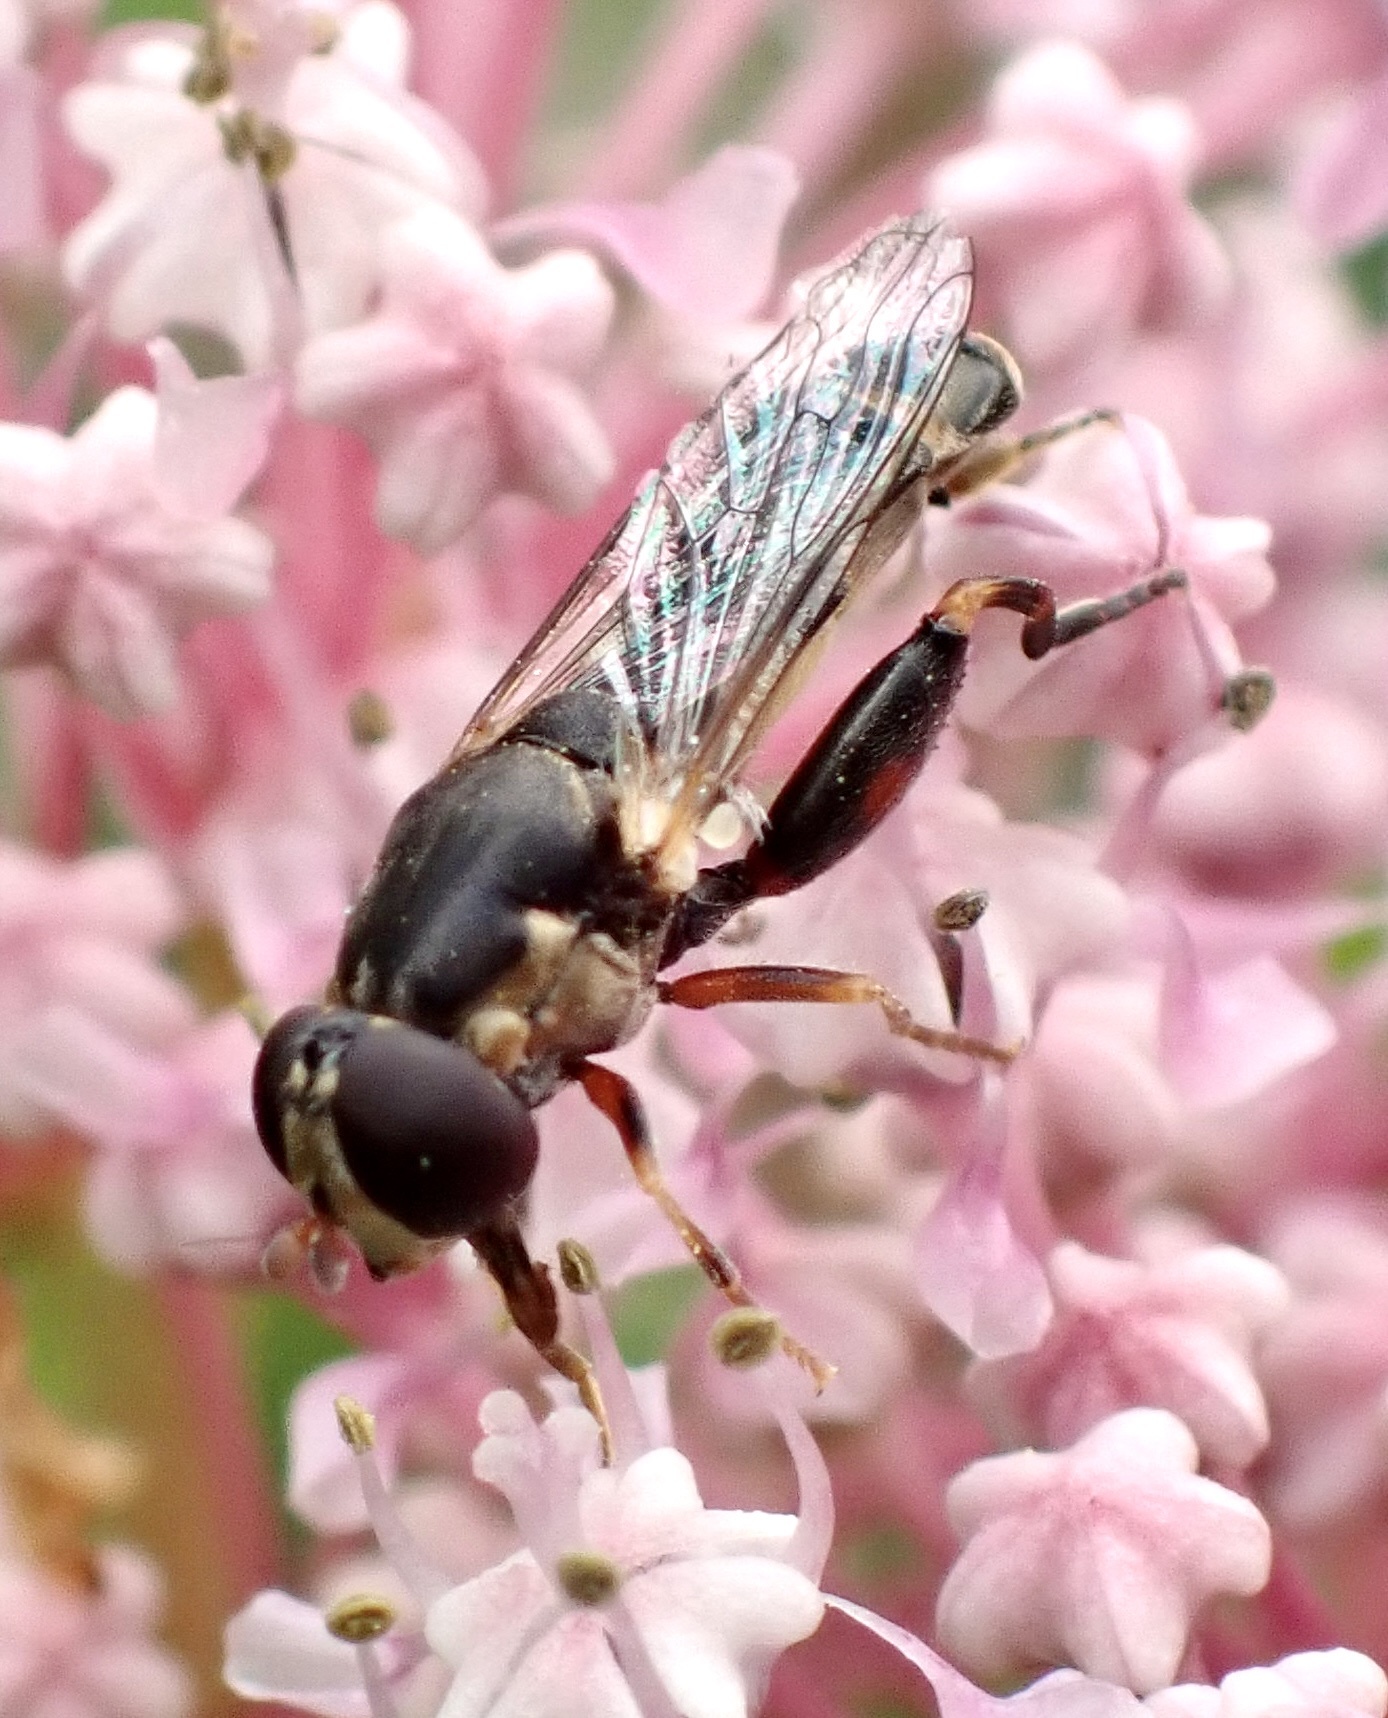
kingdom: Animalia
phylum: Arthropoda
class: Insecta
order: Diptera
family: Syrphidae
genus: Syritta
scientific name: Syritta pipiens
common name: Hover fly
